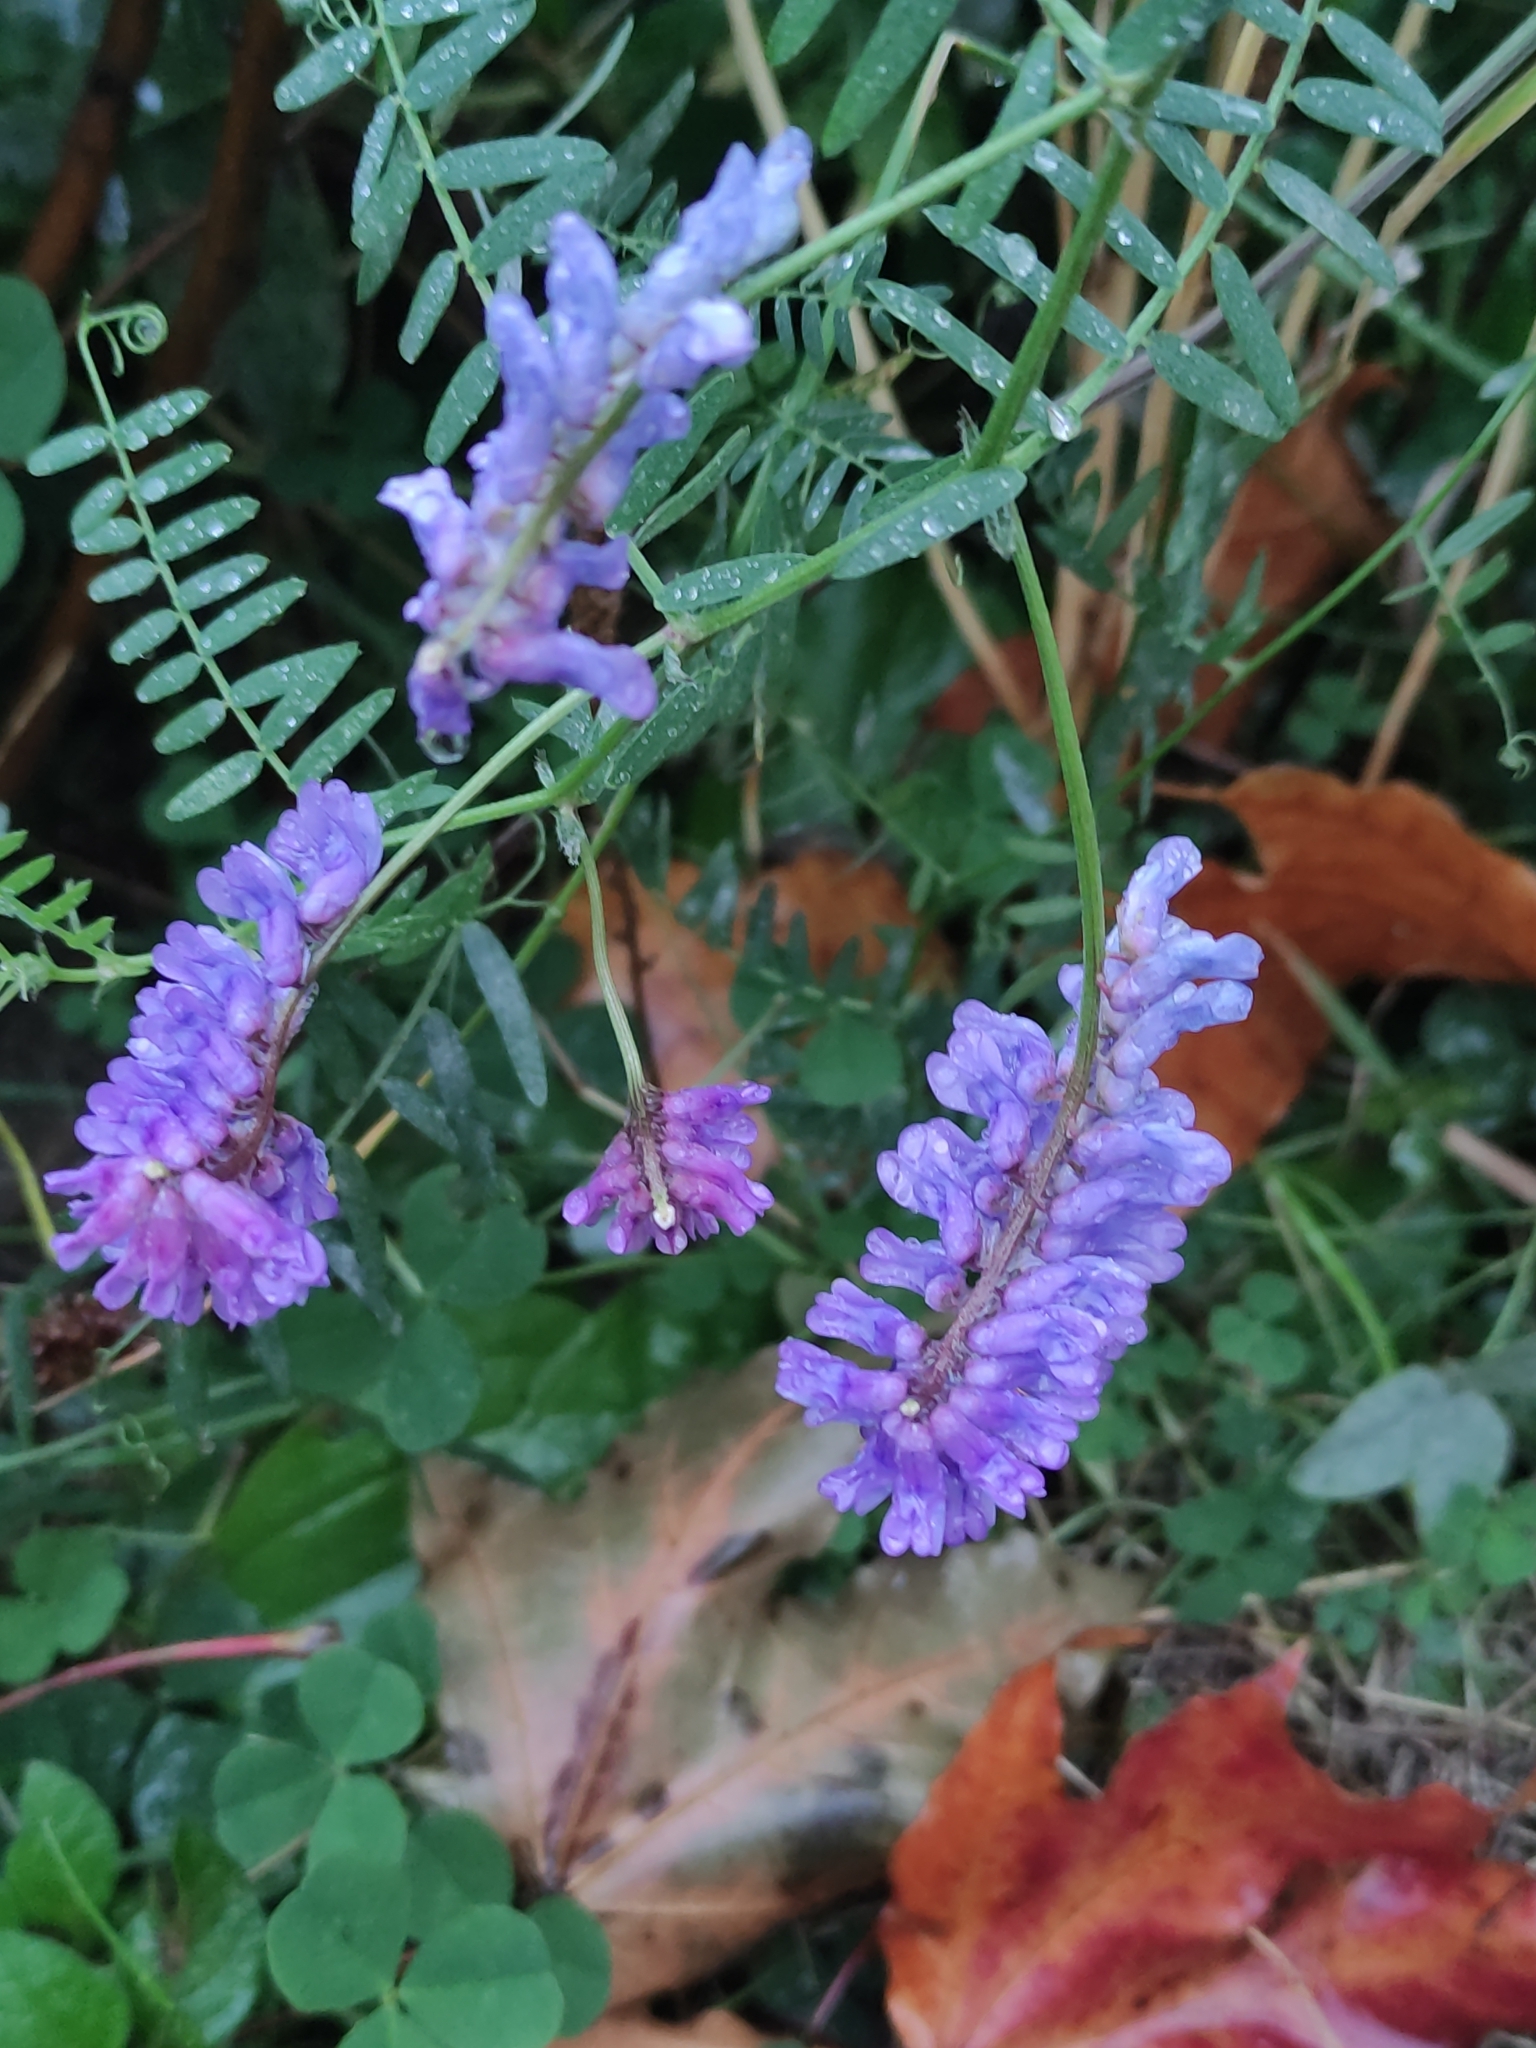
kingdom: Plantae
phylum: Tracheophyta
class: Magnoliopsida
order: Fabales
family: Fabaceae
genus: Vicia
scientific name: Vicia cracca
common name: Bird vetch
